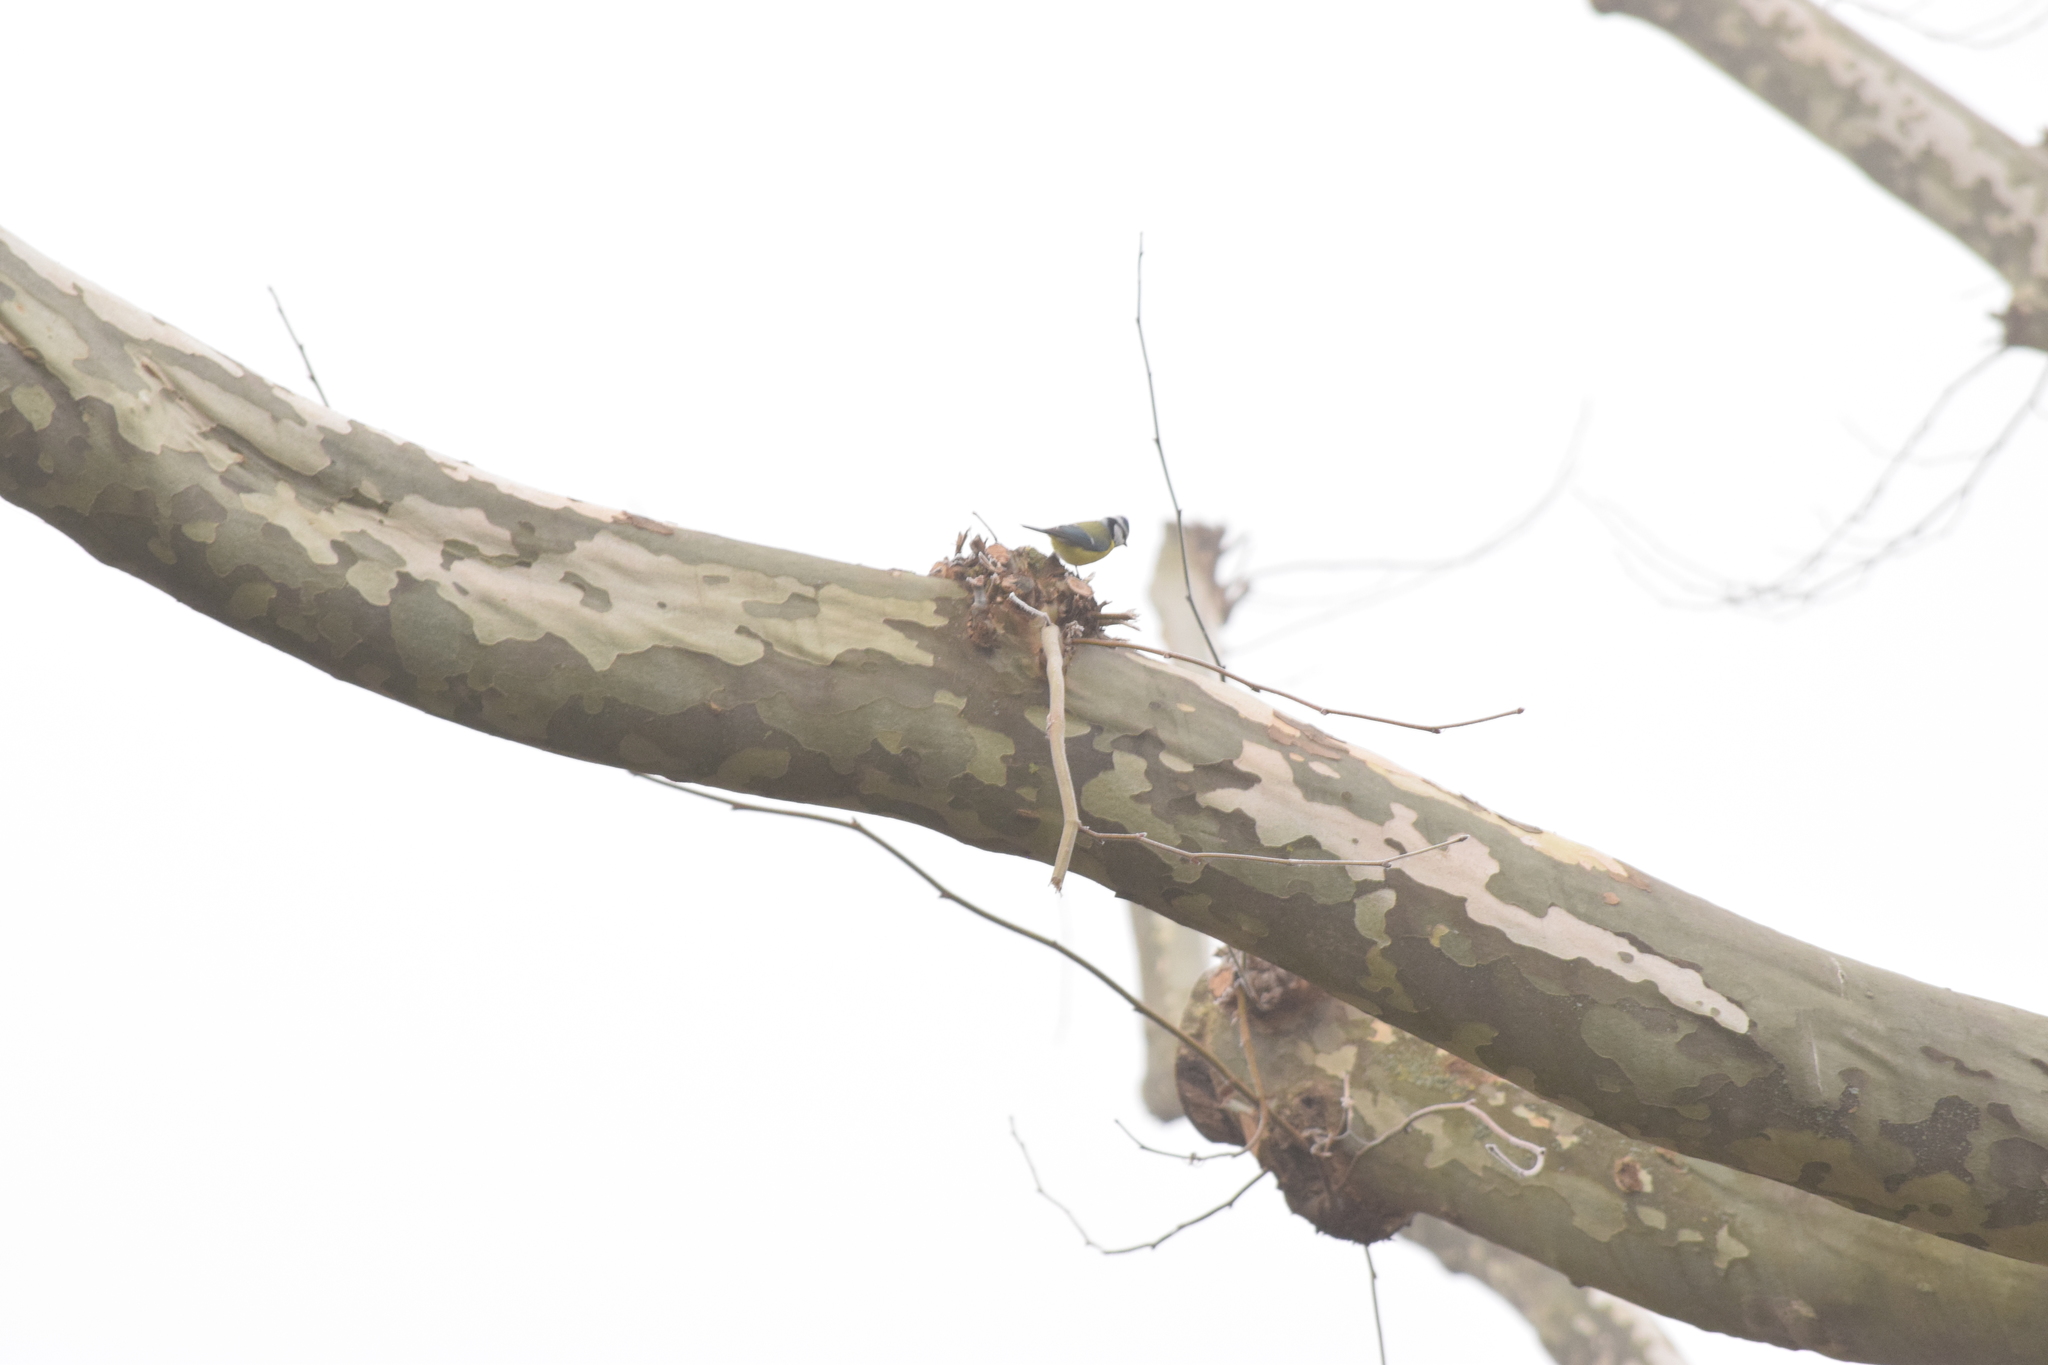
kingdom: Animalia
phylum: Chordata
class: Aves
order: Passeriformes
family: Paridae
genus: Cyanistes
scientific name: Cyanistes caeruleus
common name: Eurasian blue tit
